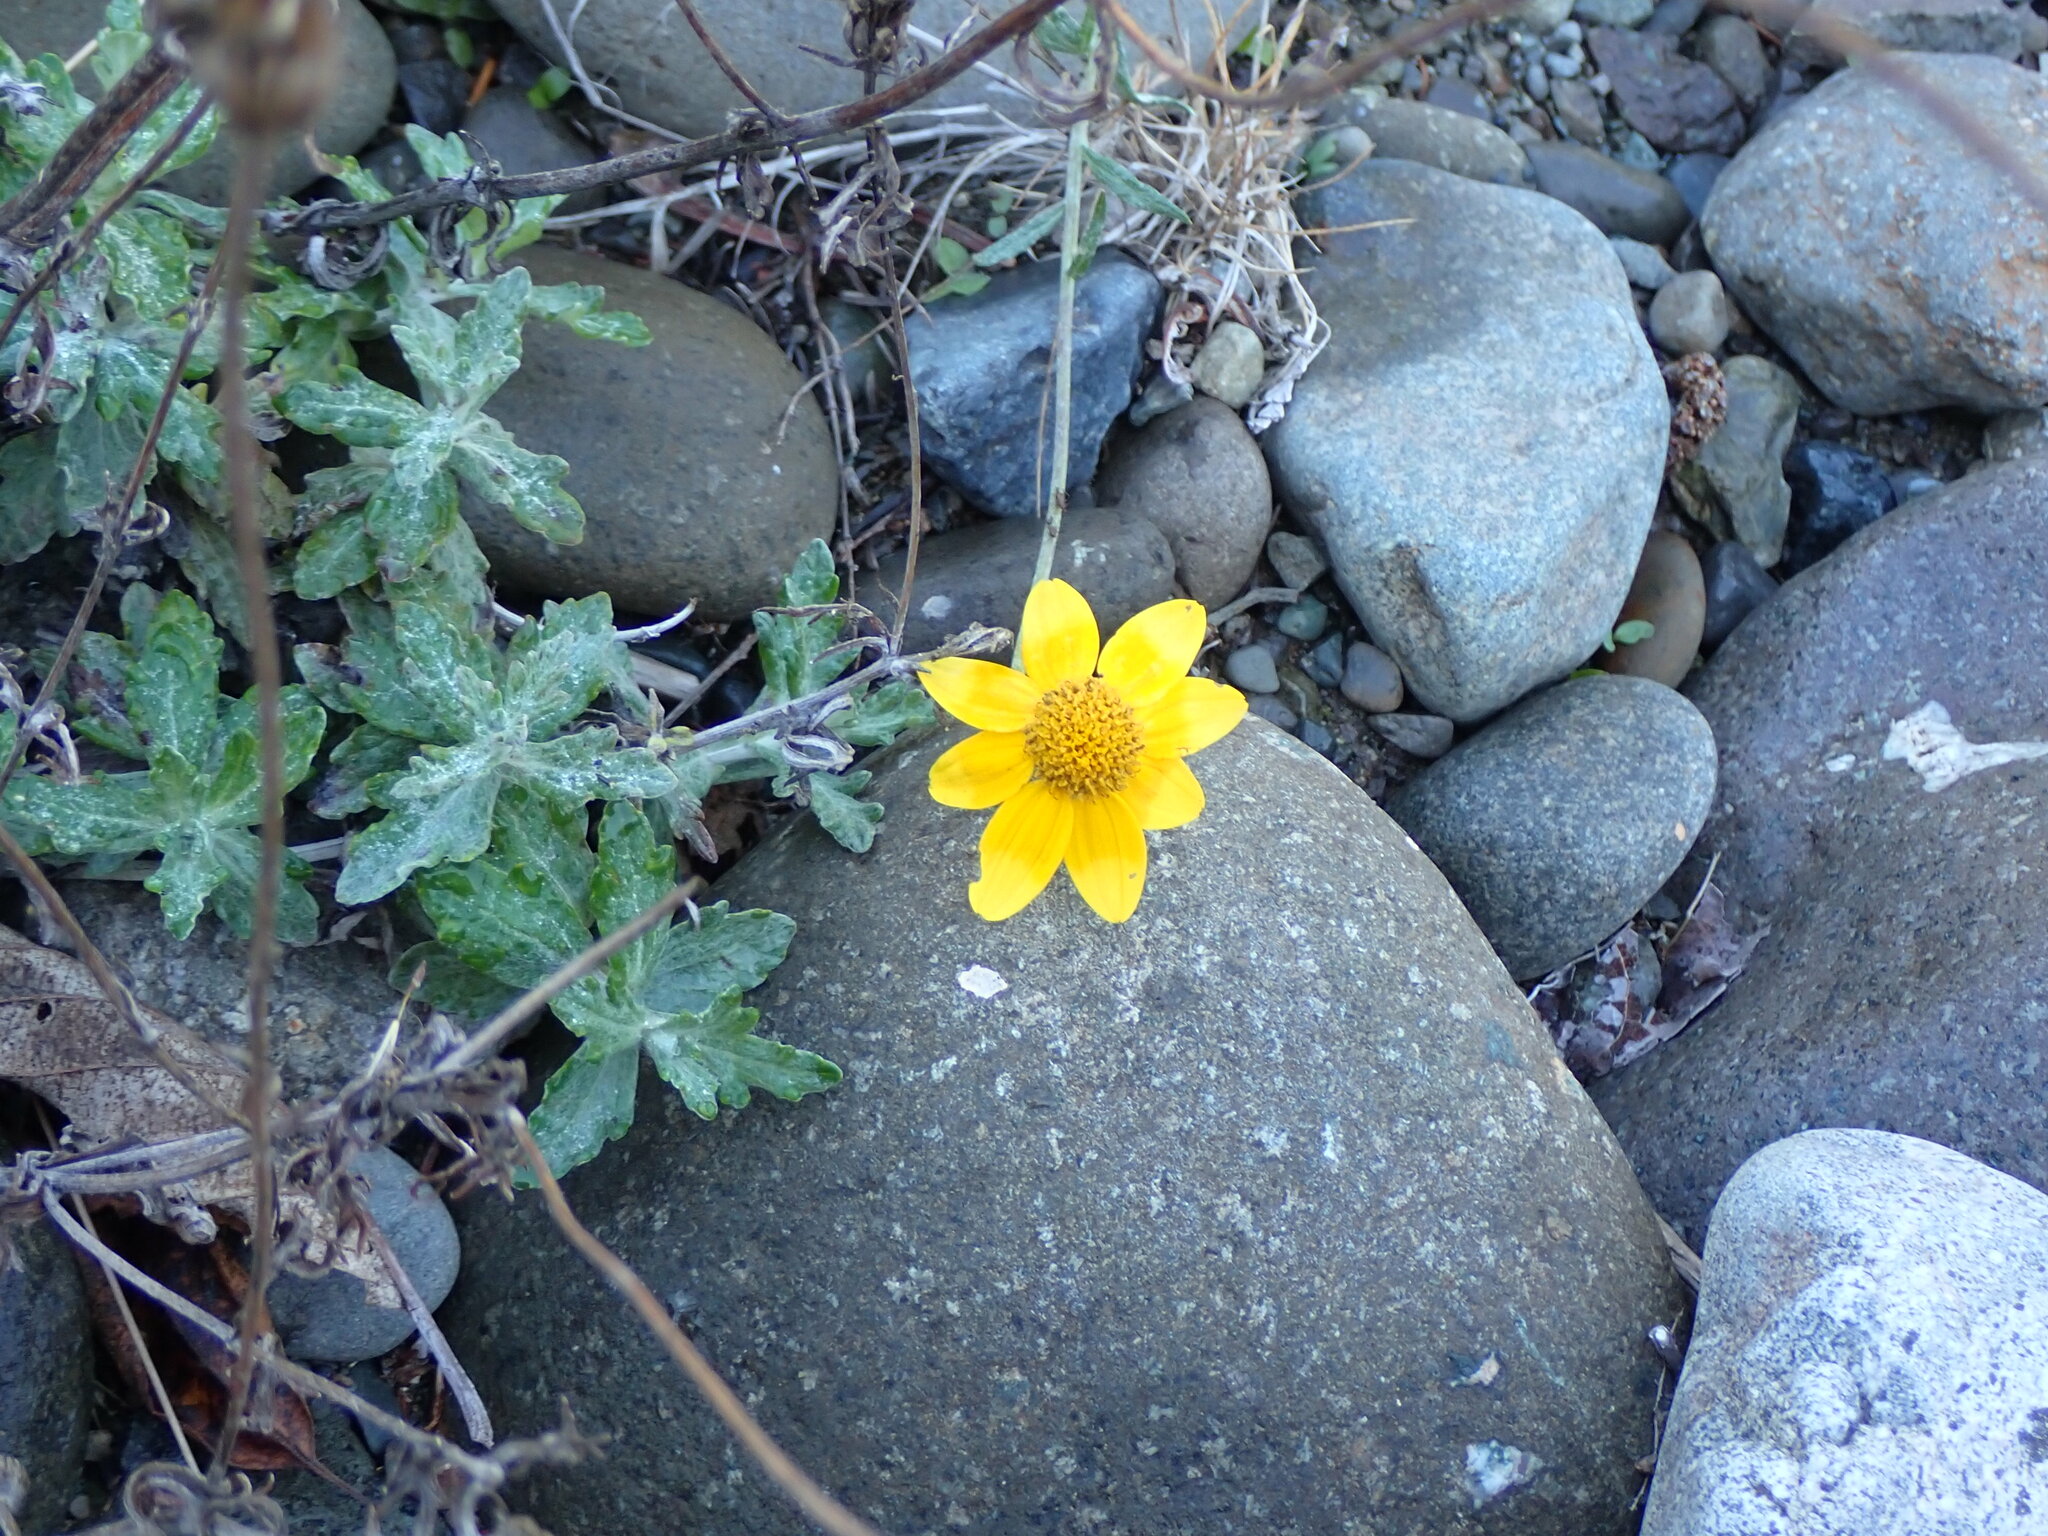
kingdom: Plantae
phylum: Tracheophyta
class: Magnoliopsida
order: Asterales
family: Asteraceae
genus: Eriophyllum
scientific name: Eriophyllum lanatum
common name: Common woolly-sunflower
